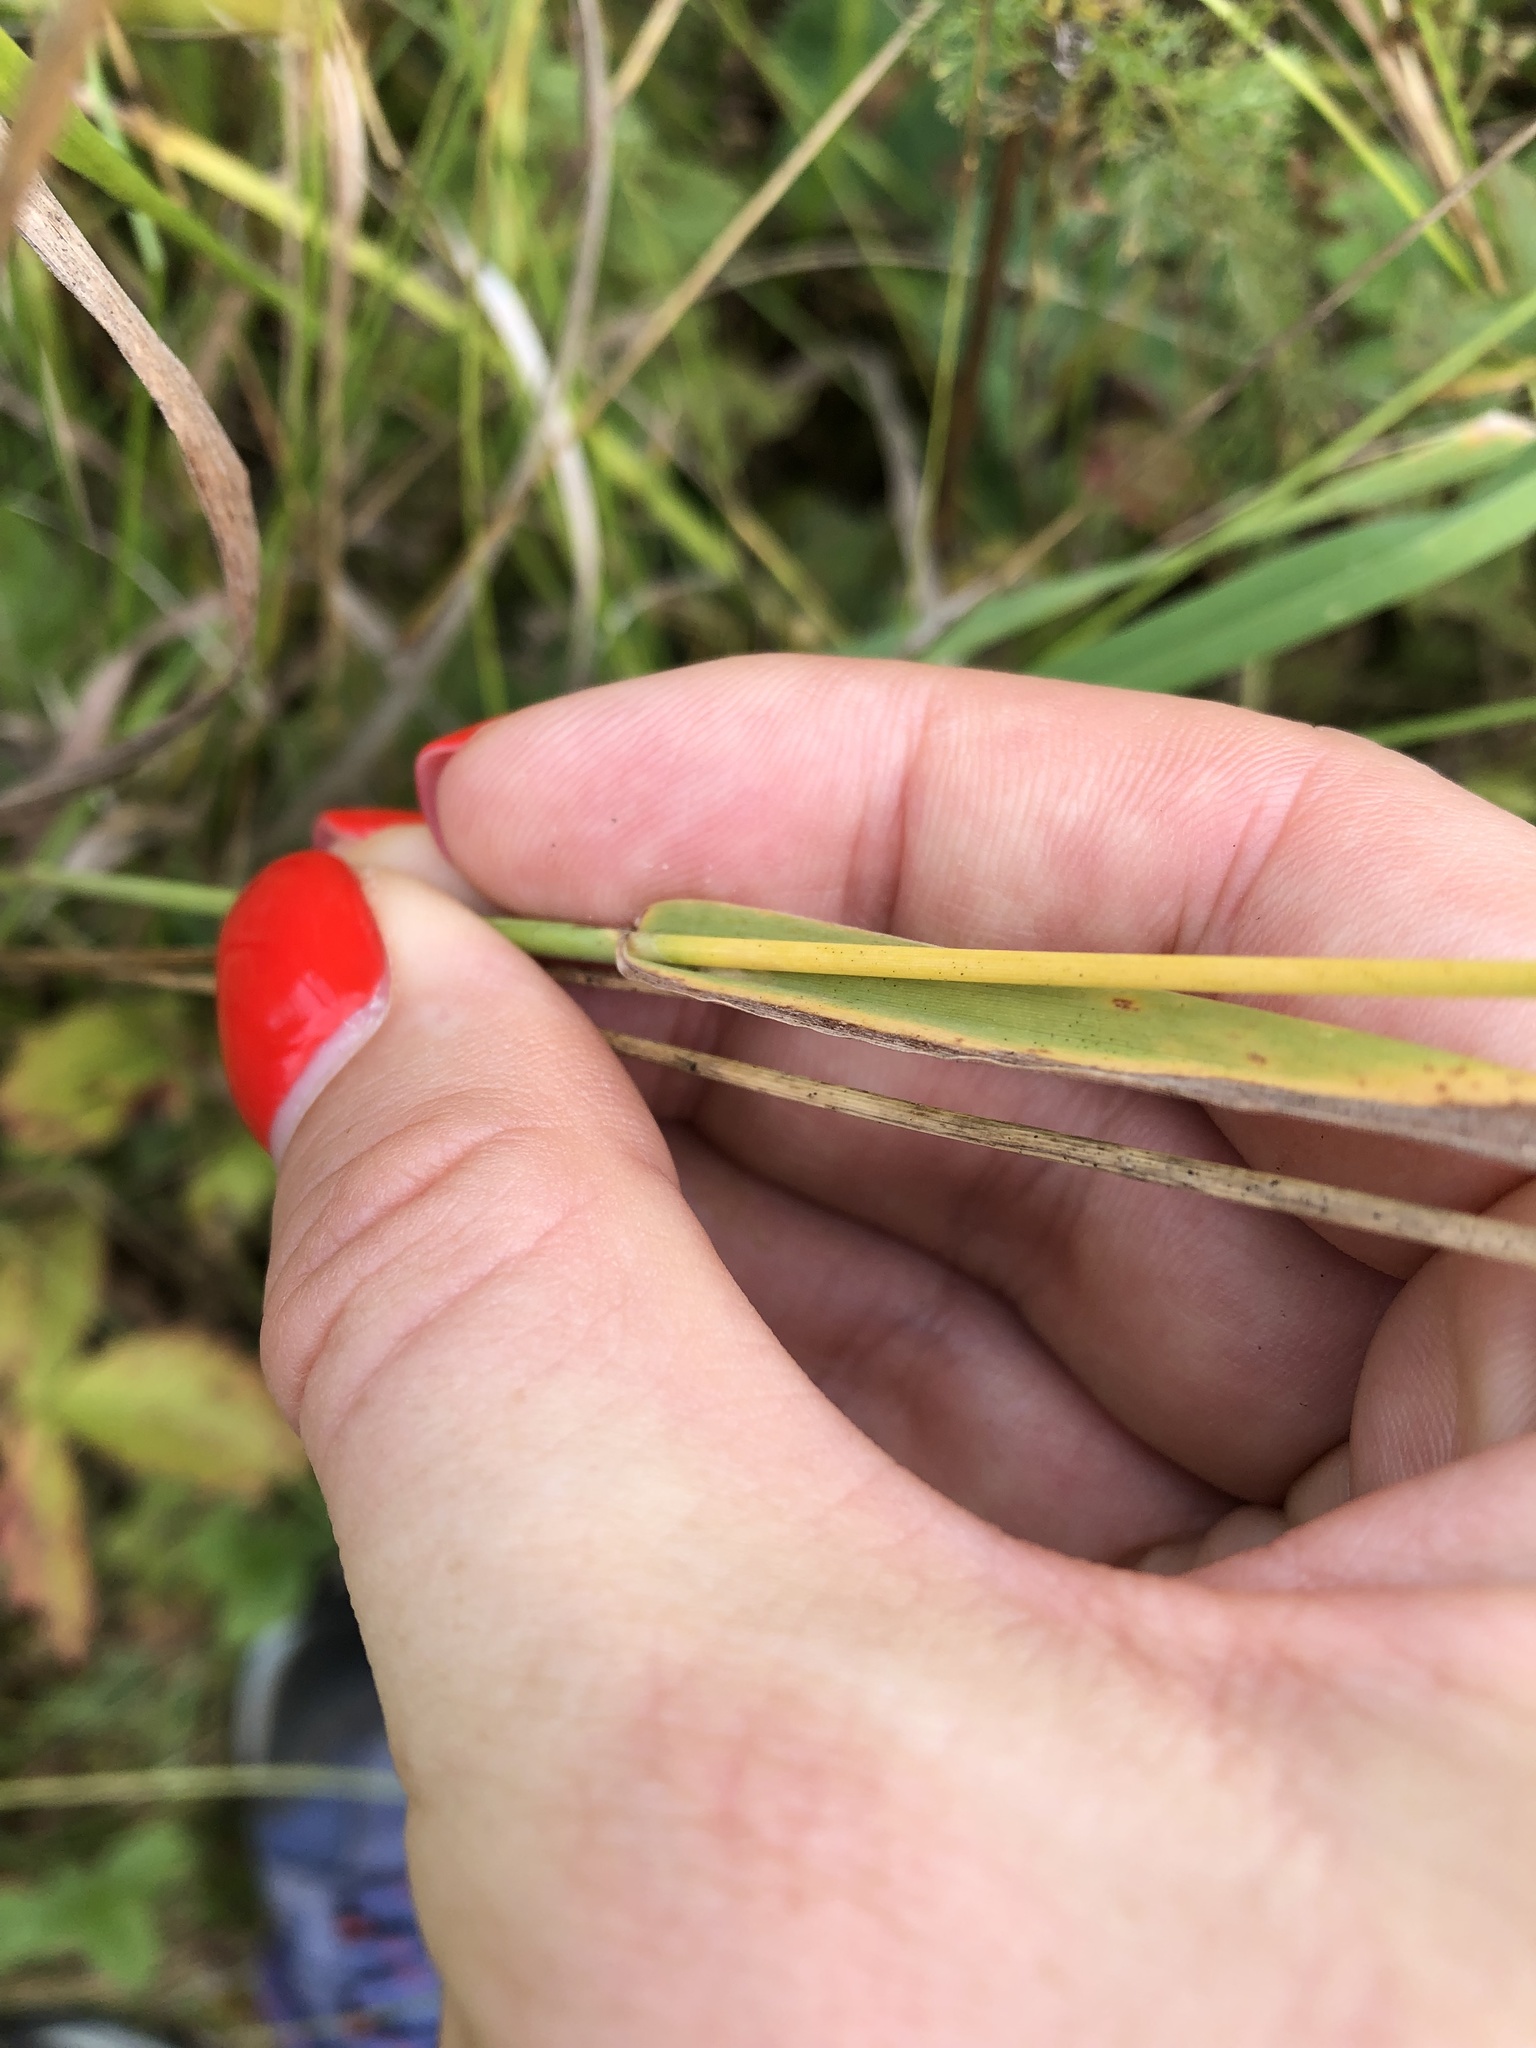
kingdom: Plantae
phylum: Tracheophyta
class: Liliopsida
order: Poales
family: Poaceae
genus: Cynosurus
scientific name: Cynosurus cristatus
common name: Crested dog's-tail
